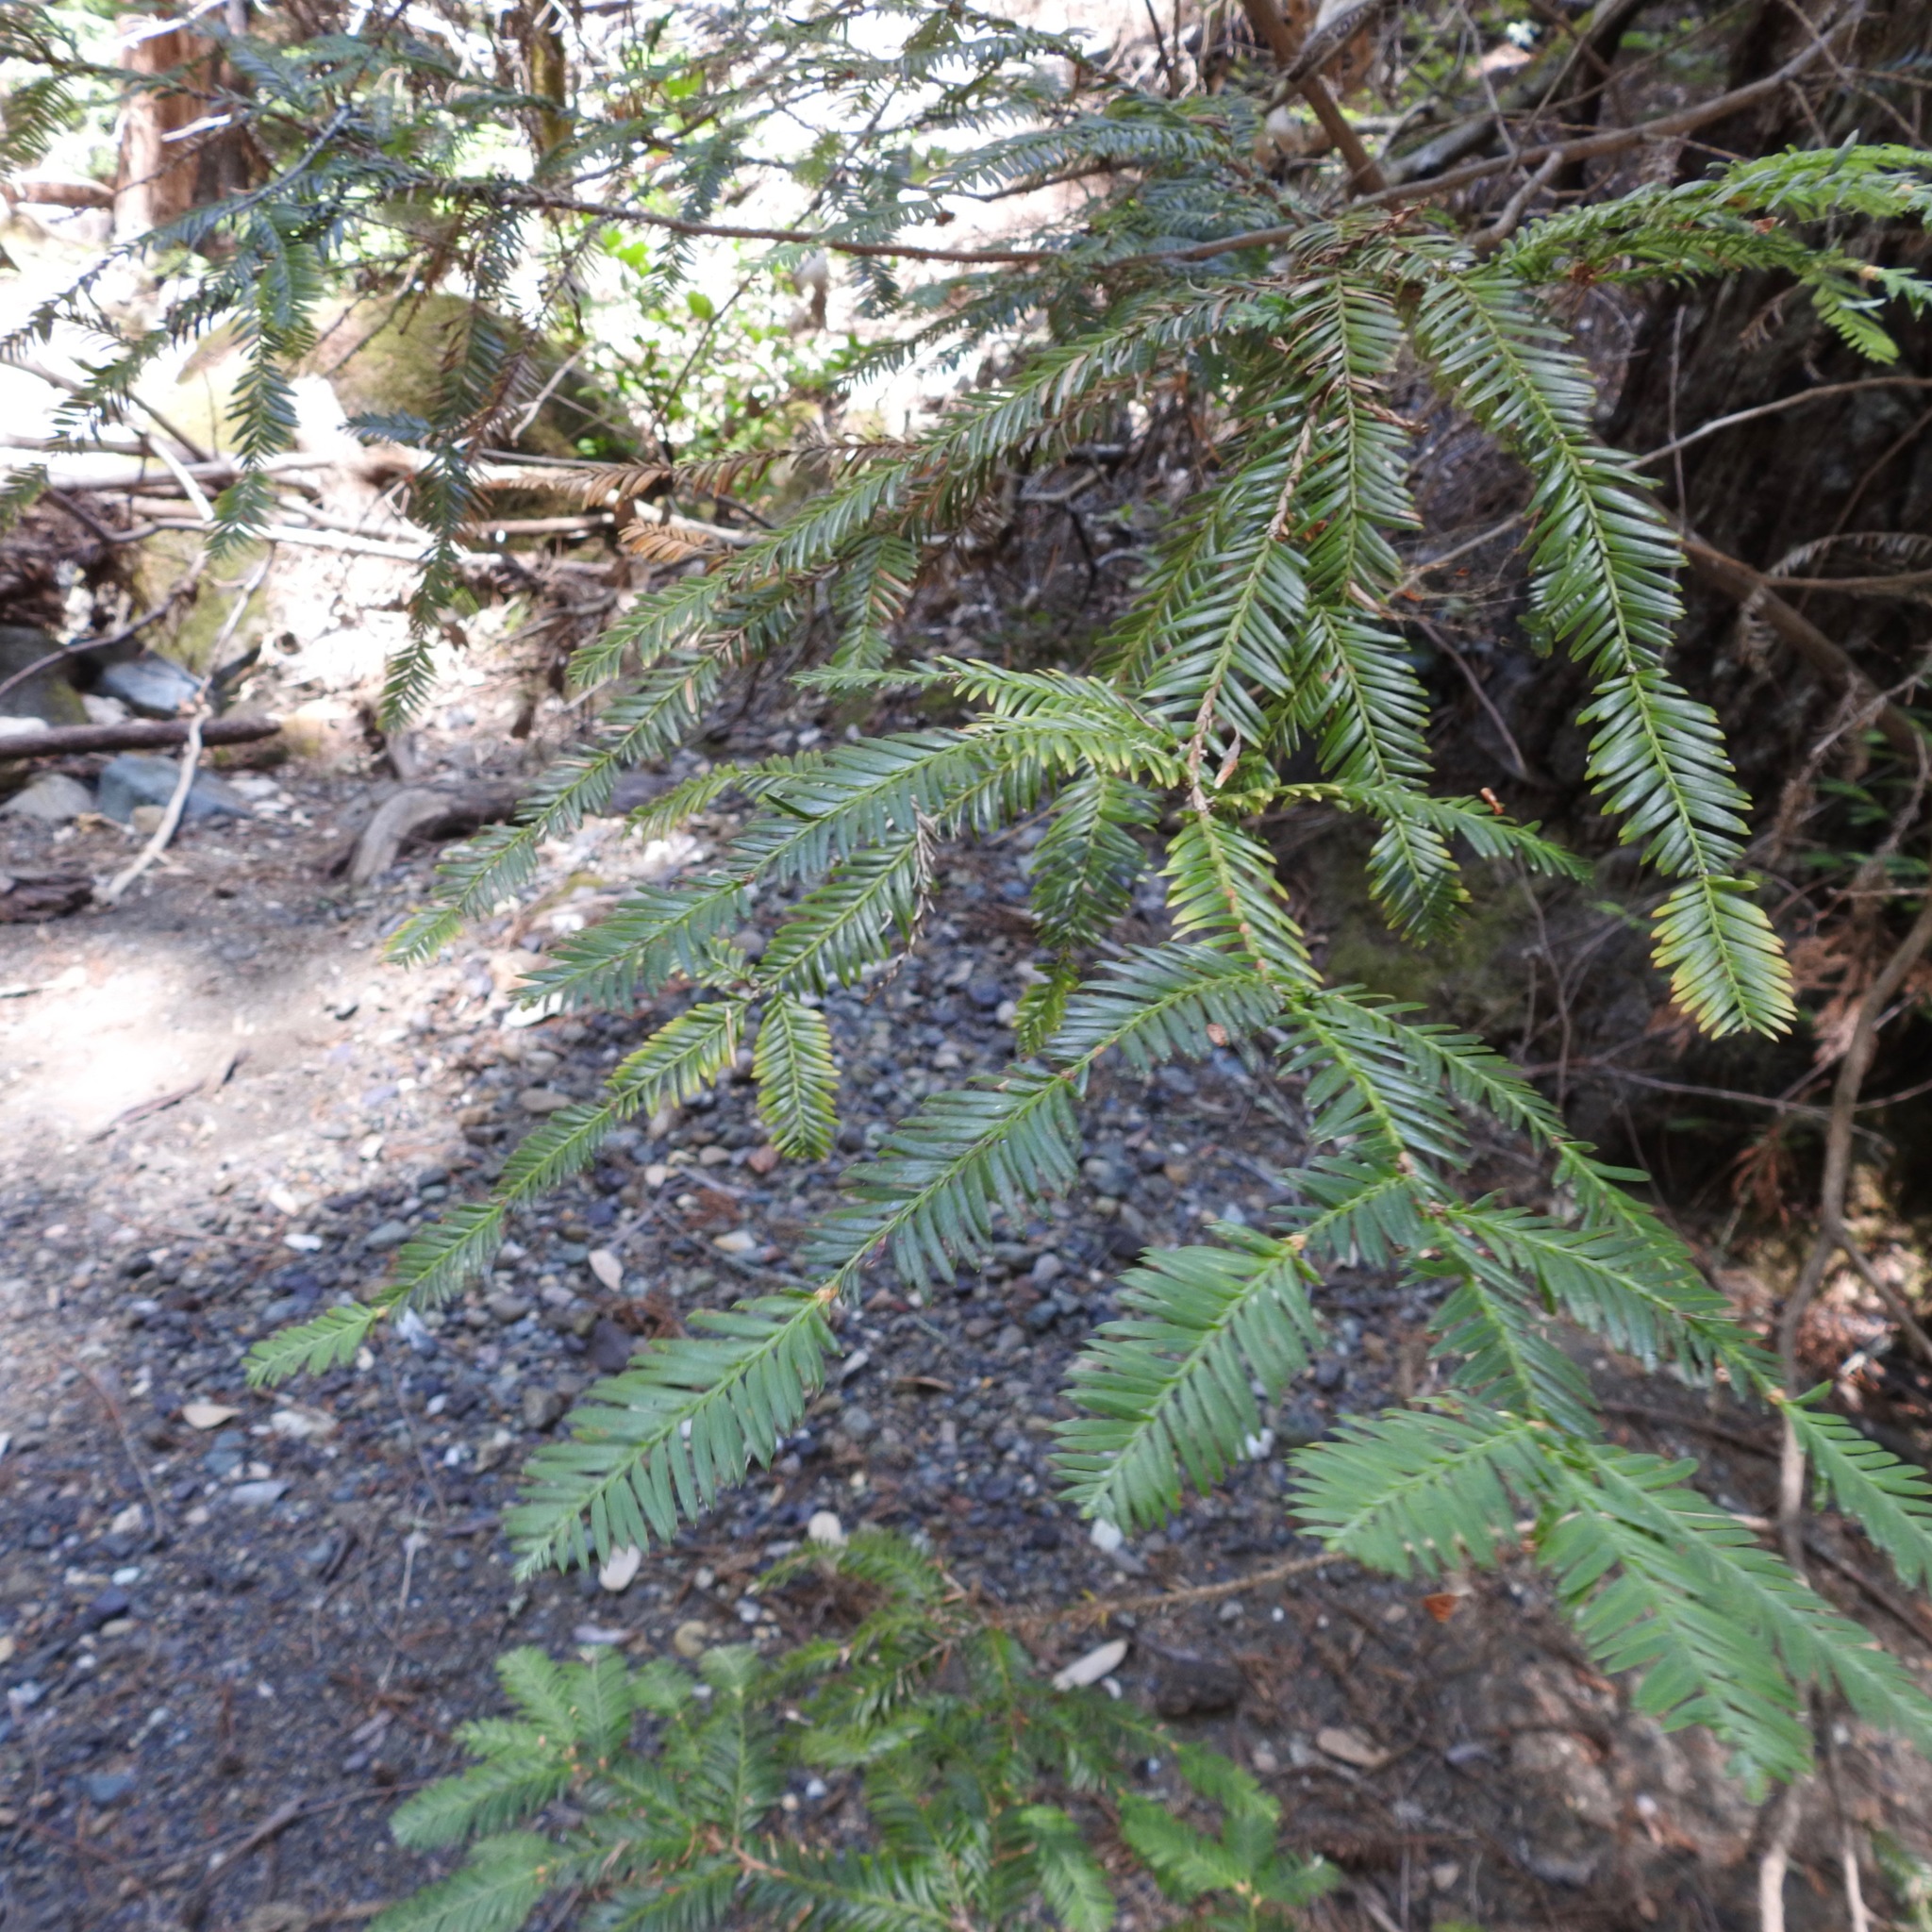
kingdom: Plantae
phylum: Tracheophyta
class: Pinopsida
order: Pinales
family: Cupressaceae
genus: Sequoia
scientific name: Sequoia sempervirens
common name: Coast redwood
